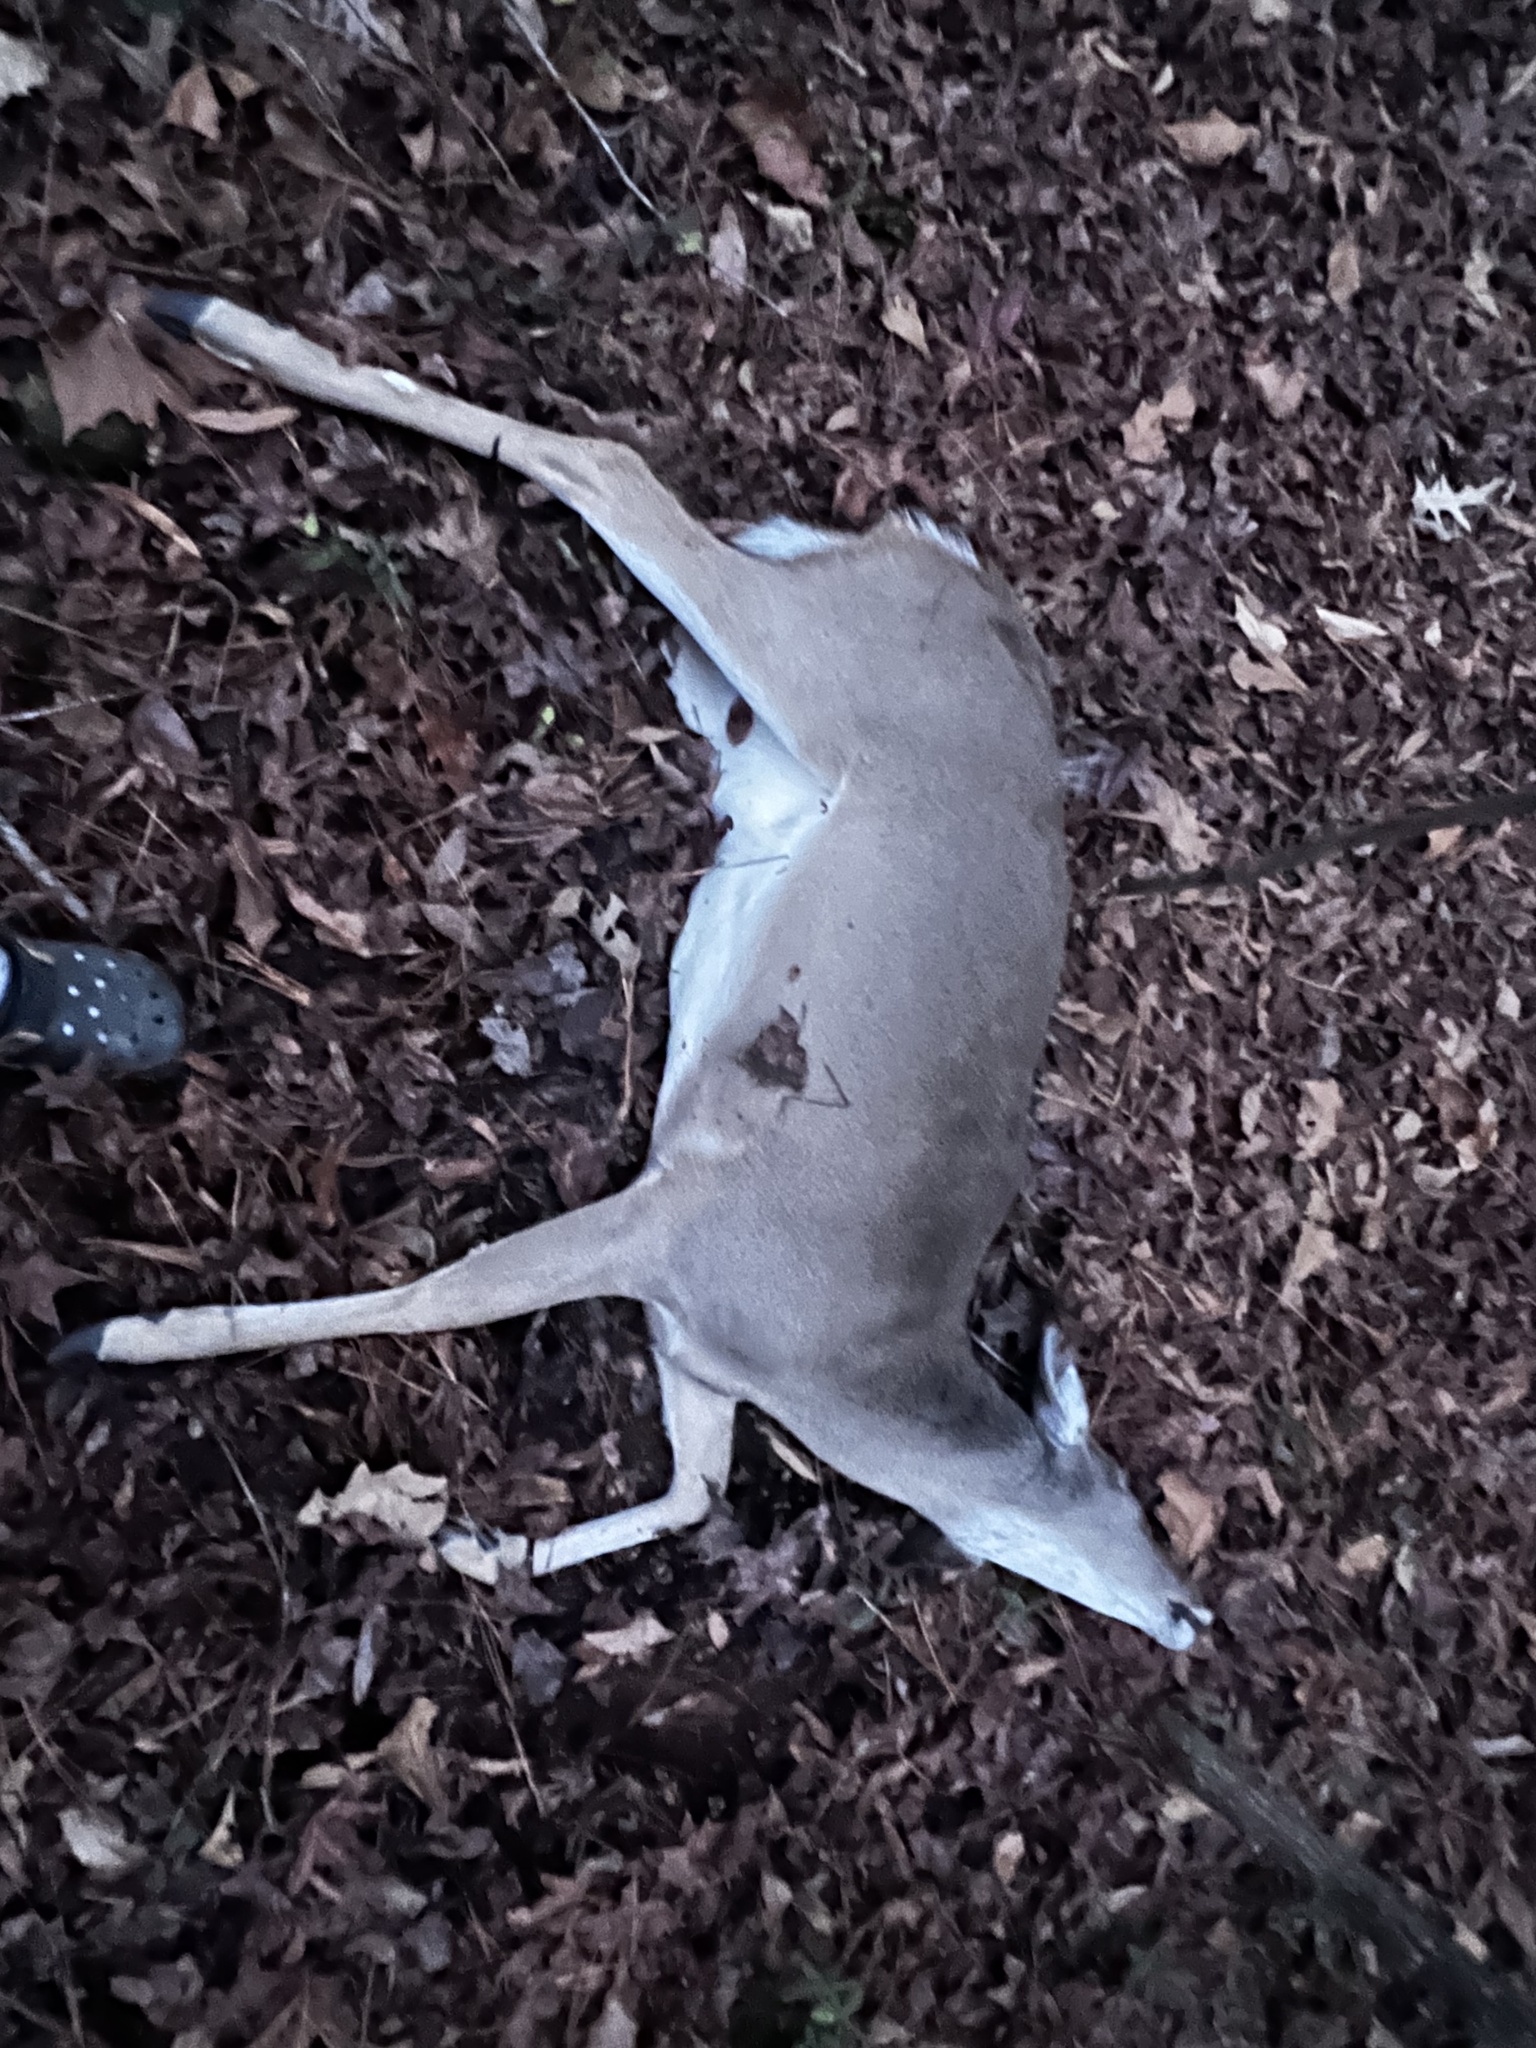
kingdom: Animalia
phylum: Chordata
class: Mammalia
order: Artiodactyla
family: Cervidae
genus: Odocoileus
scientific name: Odocoileus virginianus
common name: White-tailed deer
